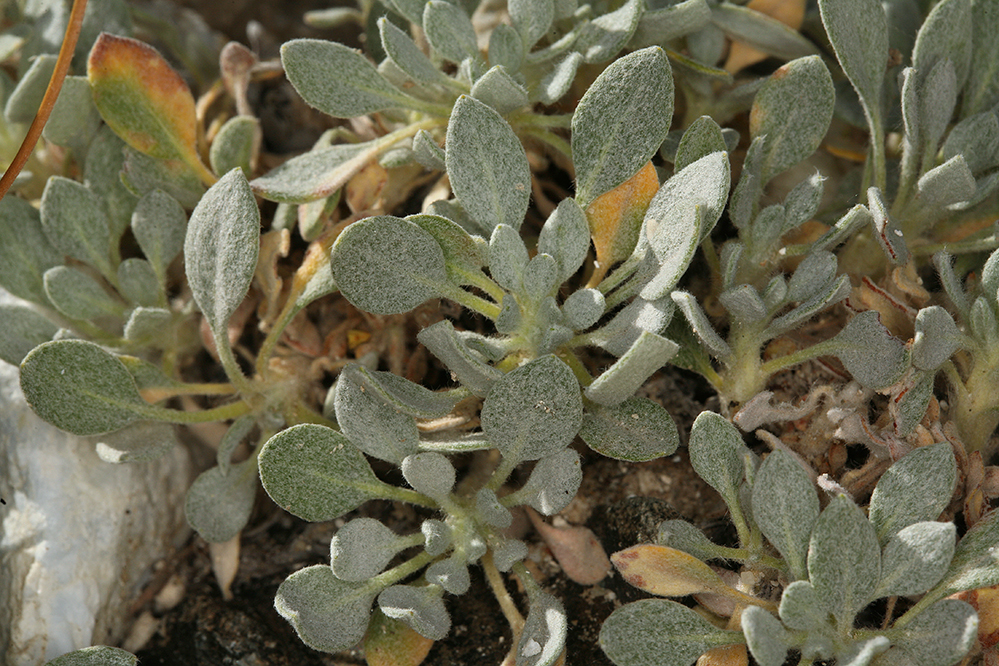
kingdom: Plantae
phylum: Tracheophyta
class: Magnoliopsida
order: Caryophyllales
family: Polygonaceae
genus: Eriogonum
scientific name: Eriogonum rosense
